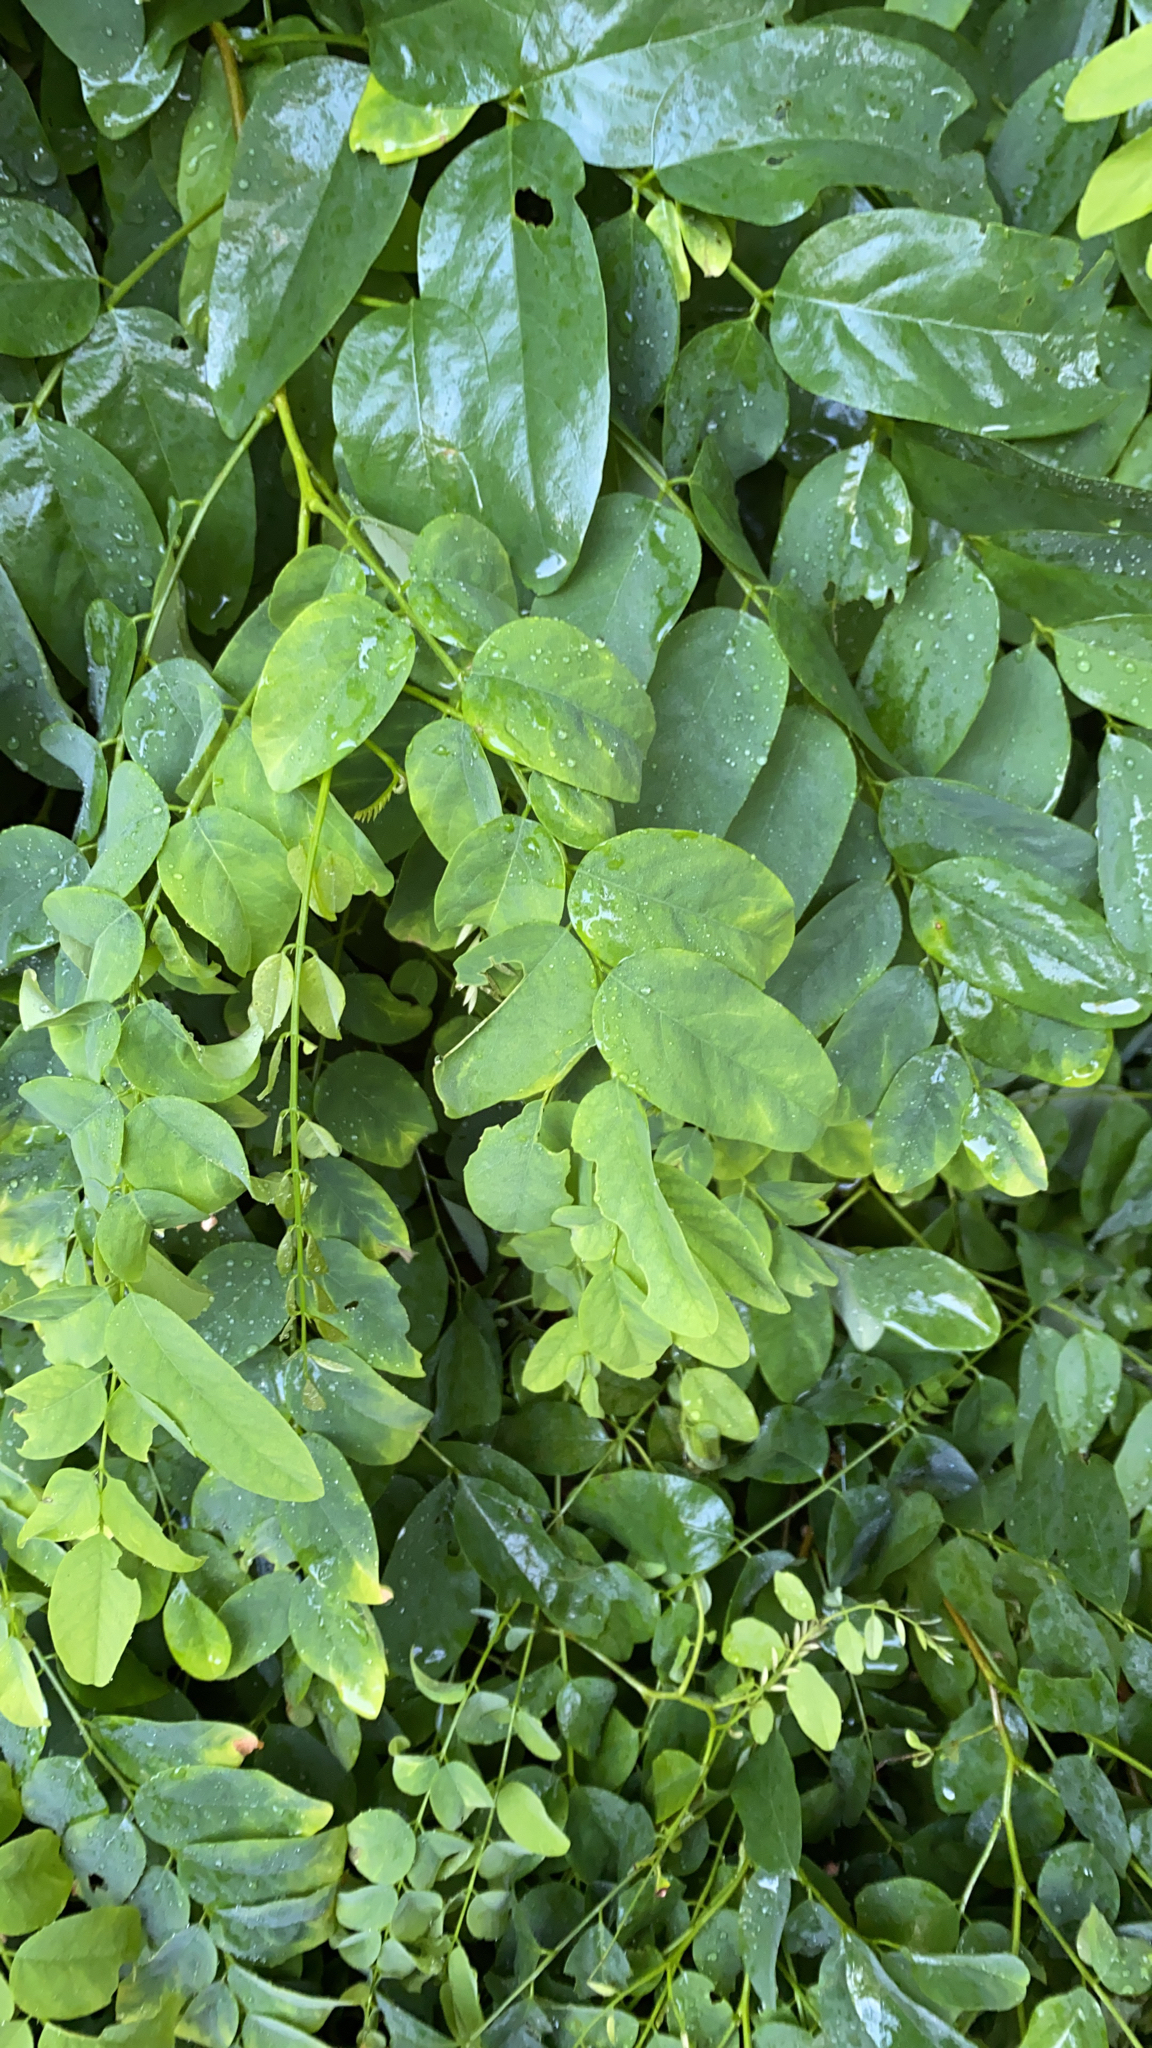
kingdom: Plantae
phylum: Tracheophyta
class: Magnoliopsida
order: Fabales
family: Fabaceae
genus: Robinia
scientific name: Robinia pseudoacacia
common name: Black locust
